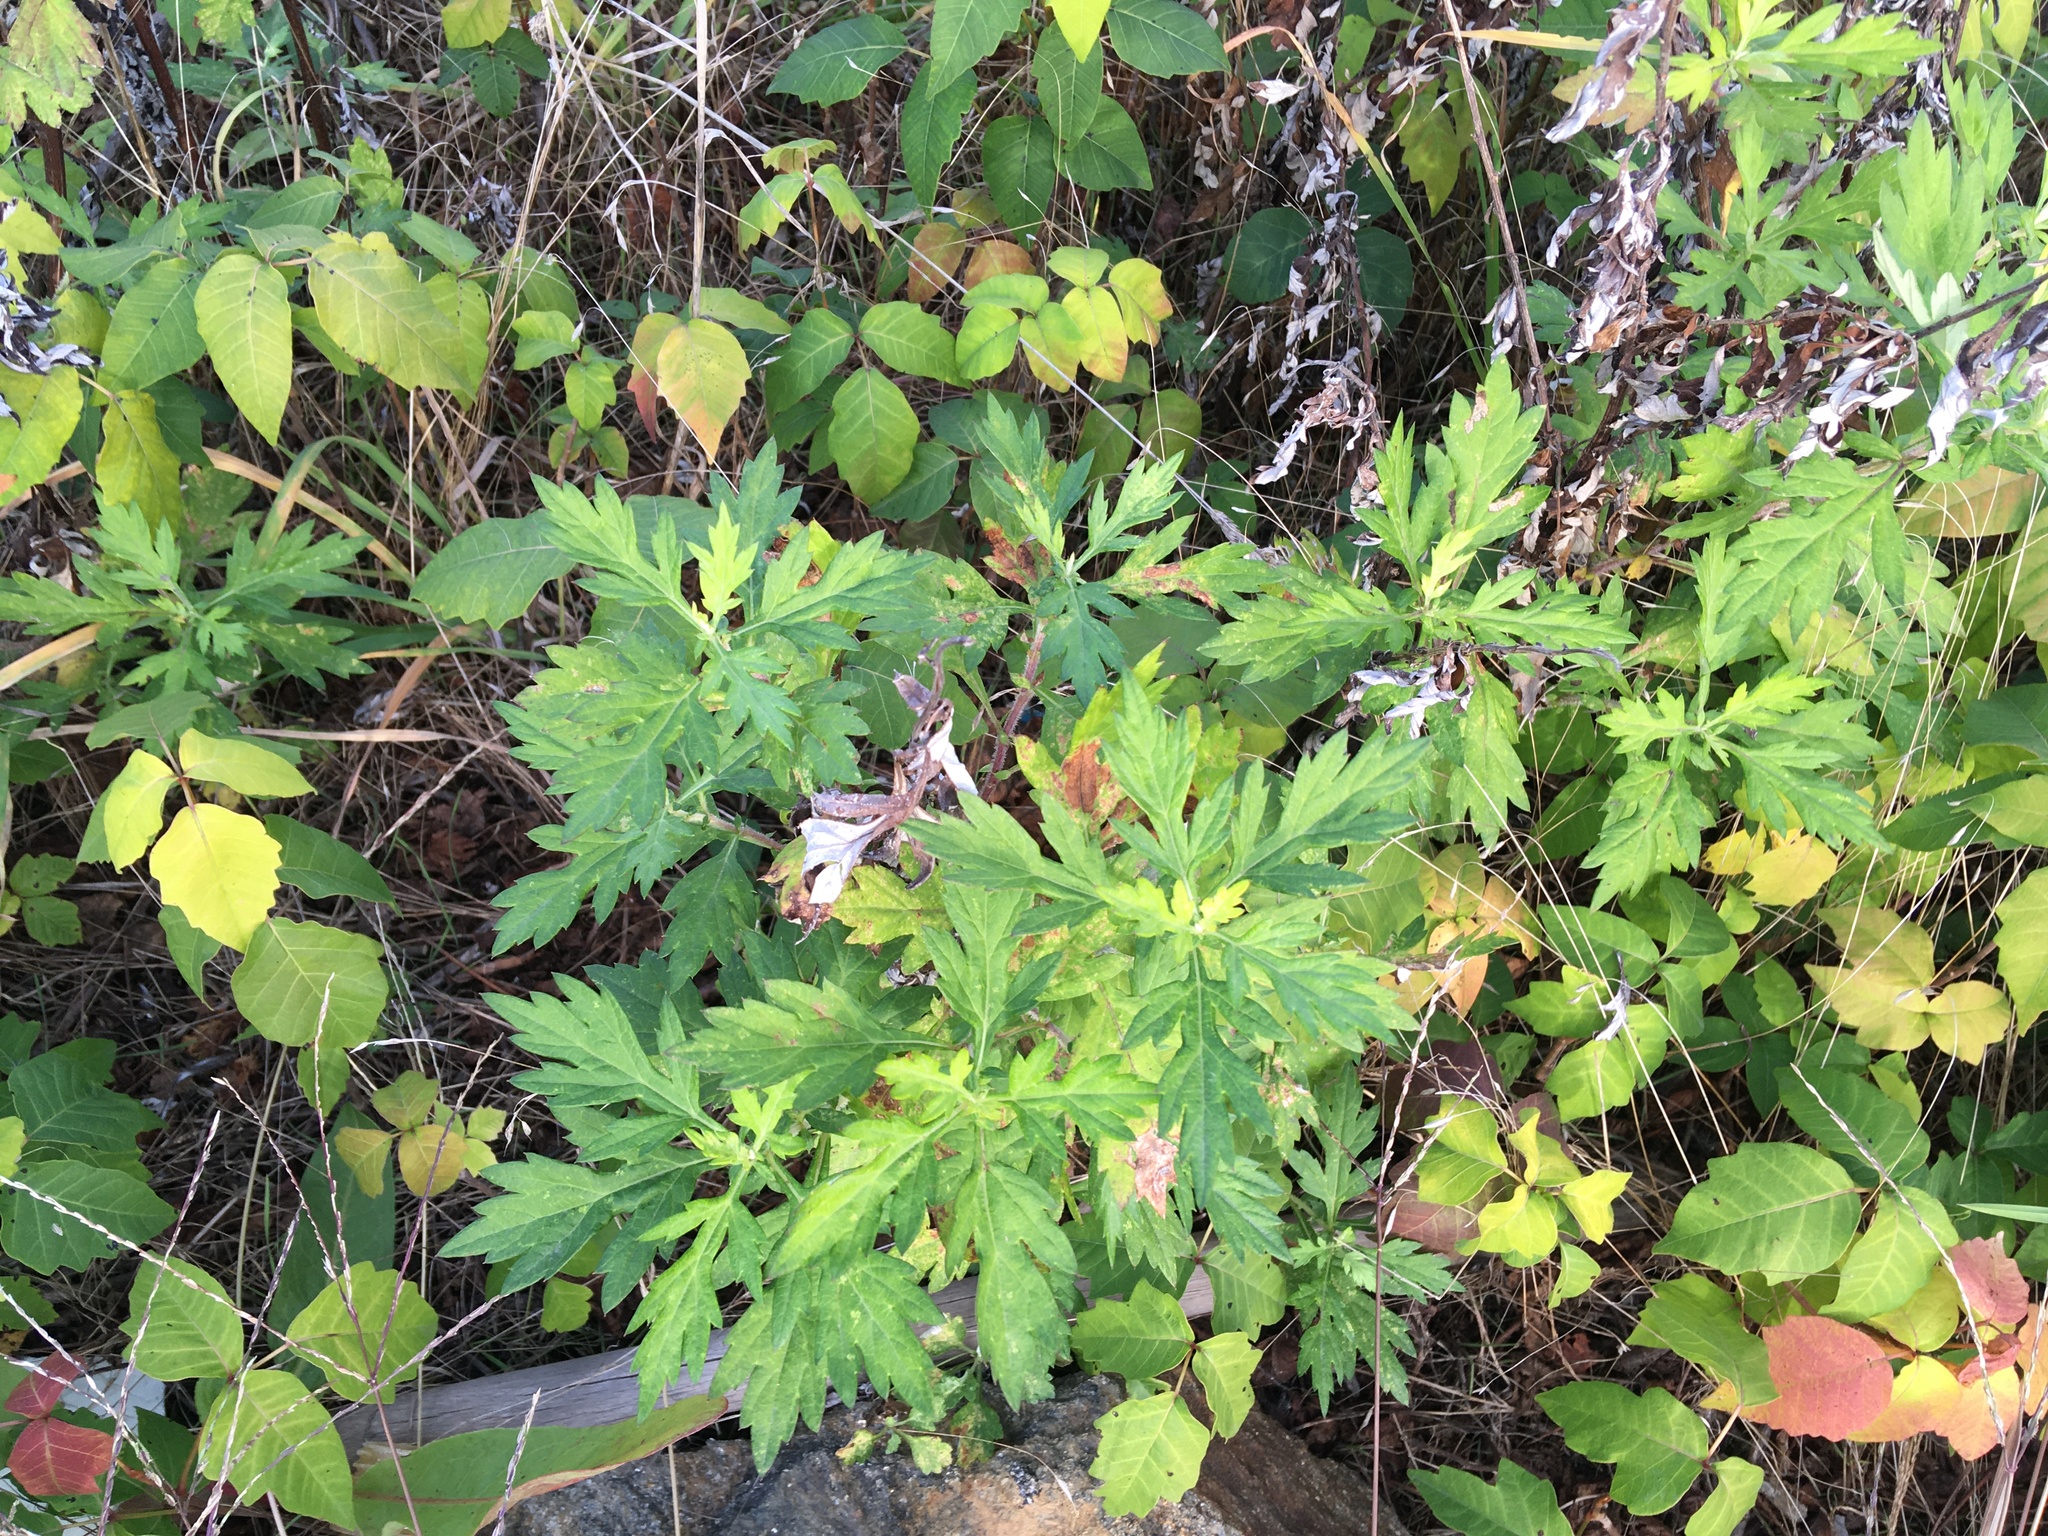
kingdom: Plantae
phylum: Tracheophyta
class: Magnoliopsida
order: Asterales
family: Asteraceae
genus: Artemisia
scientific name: Artemisia vulgaris
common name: Mugwort
